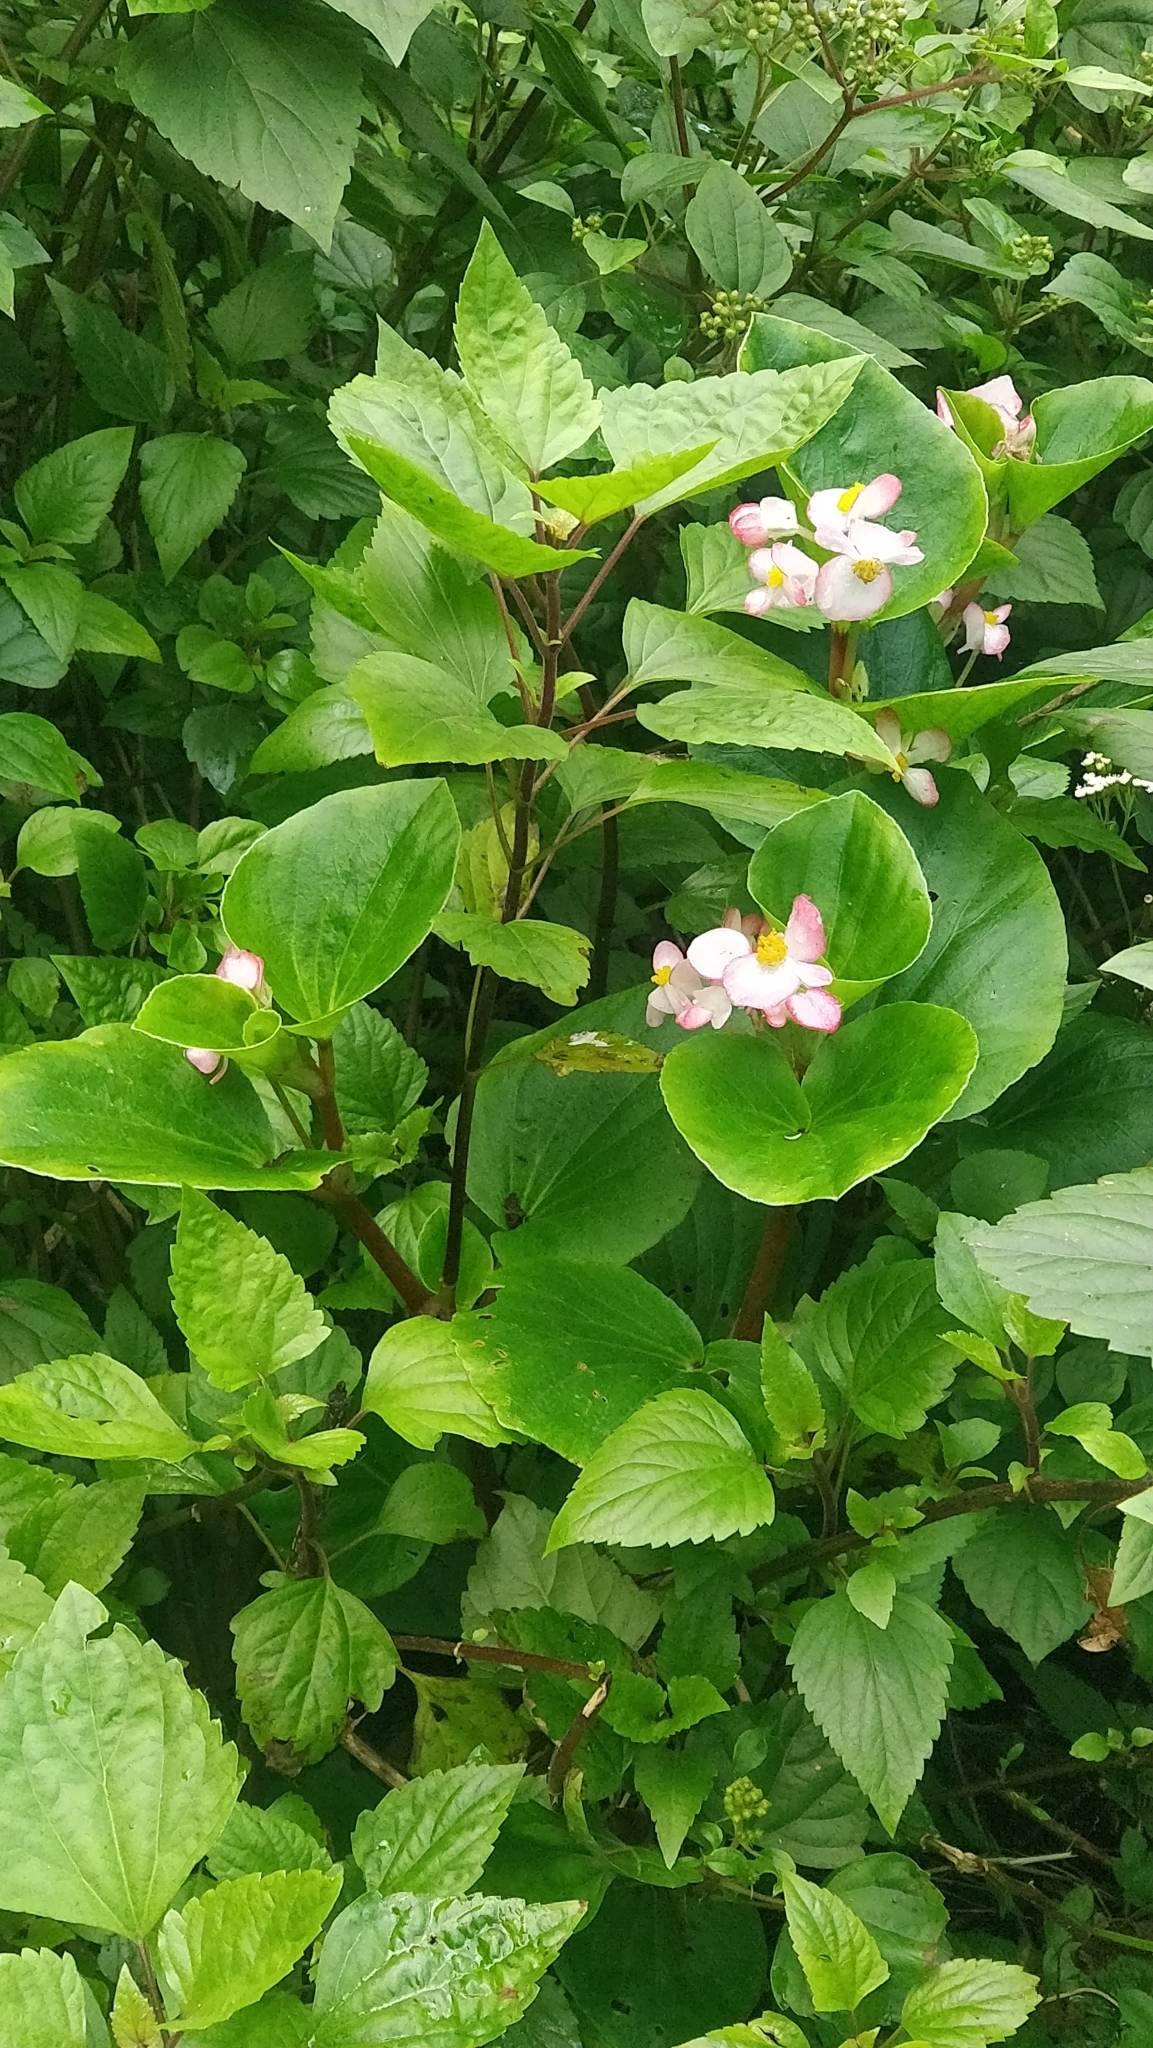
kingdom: Plantae
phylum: Tracheophyta
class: Magnoliopsida
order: Cucurbitales
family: Begoniaceae
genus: Begonia
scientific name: Begonia cucullata
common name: Clubbed begonia
